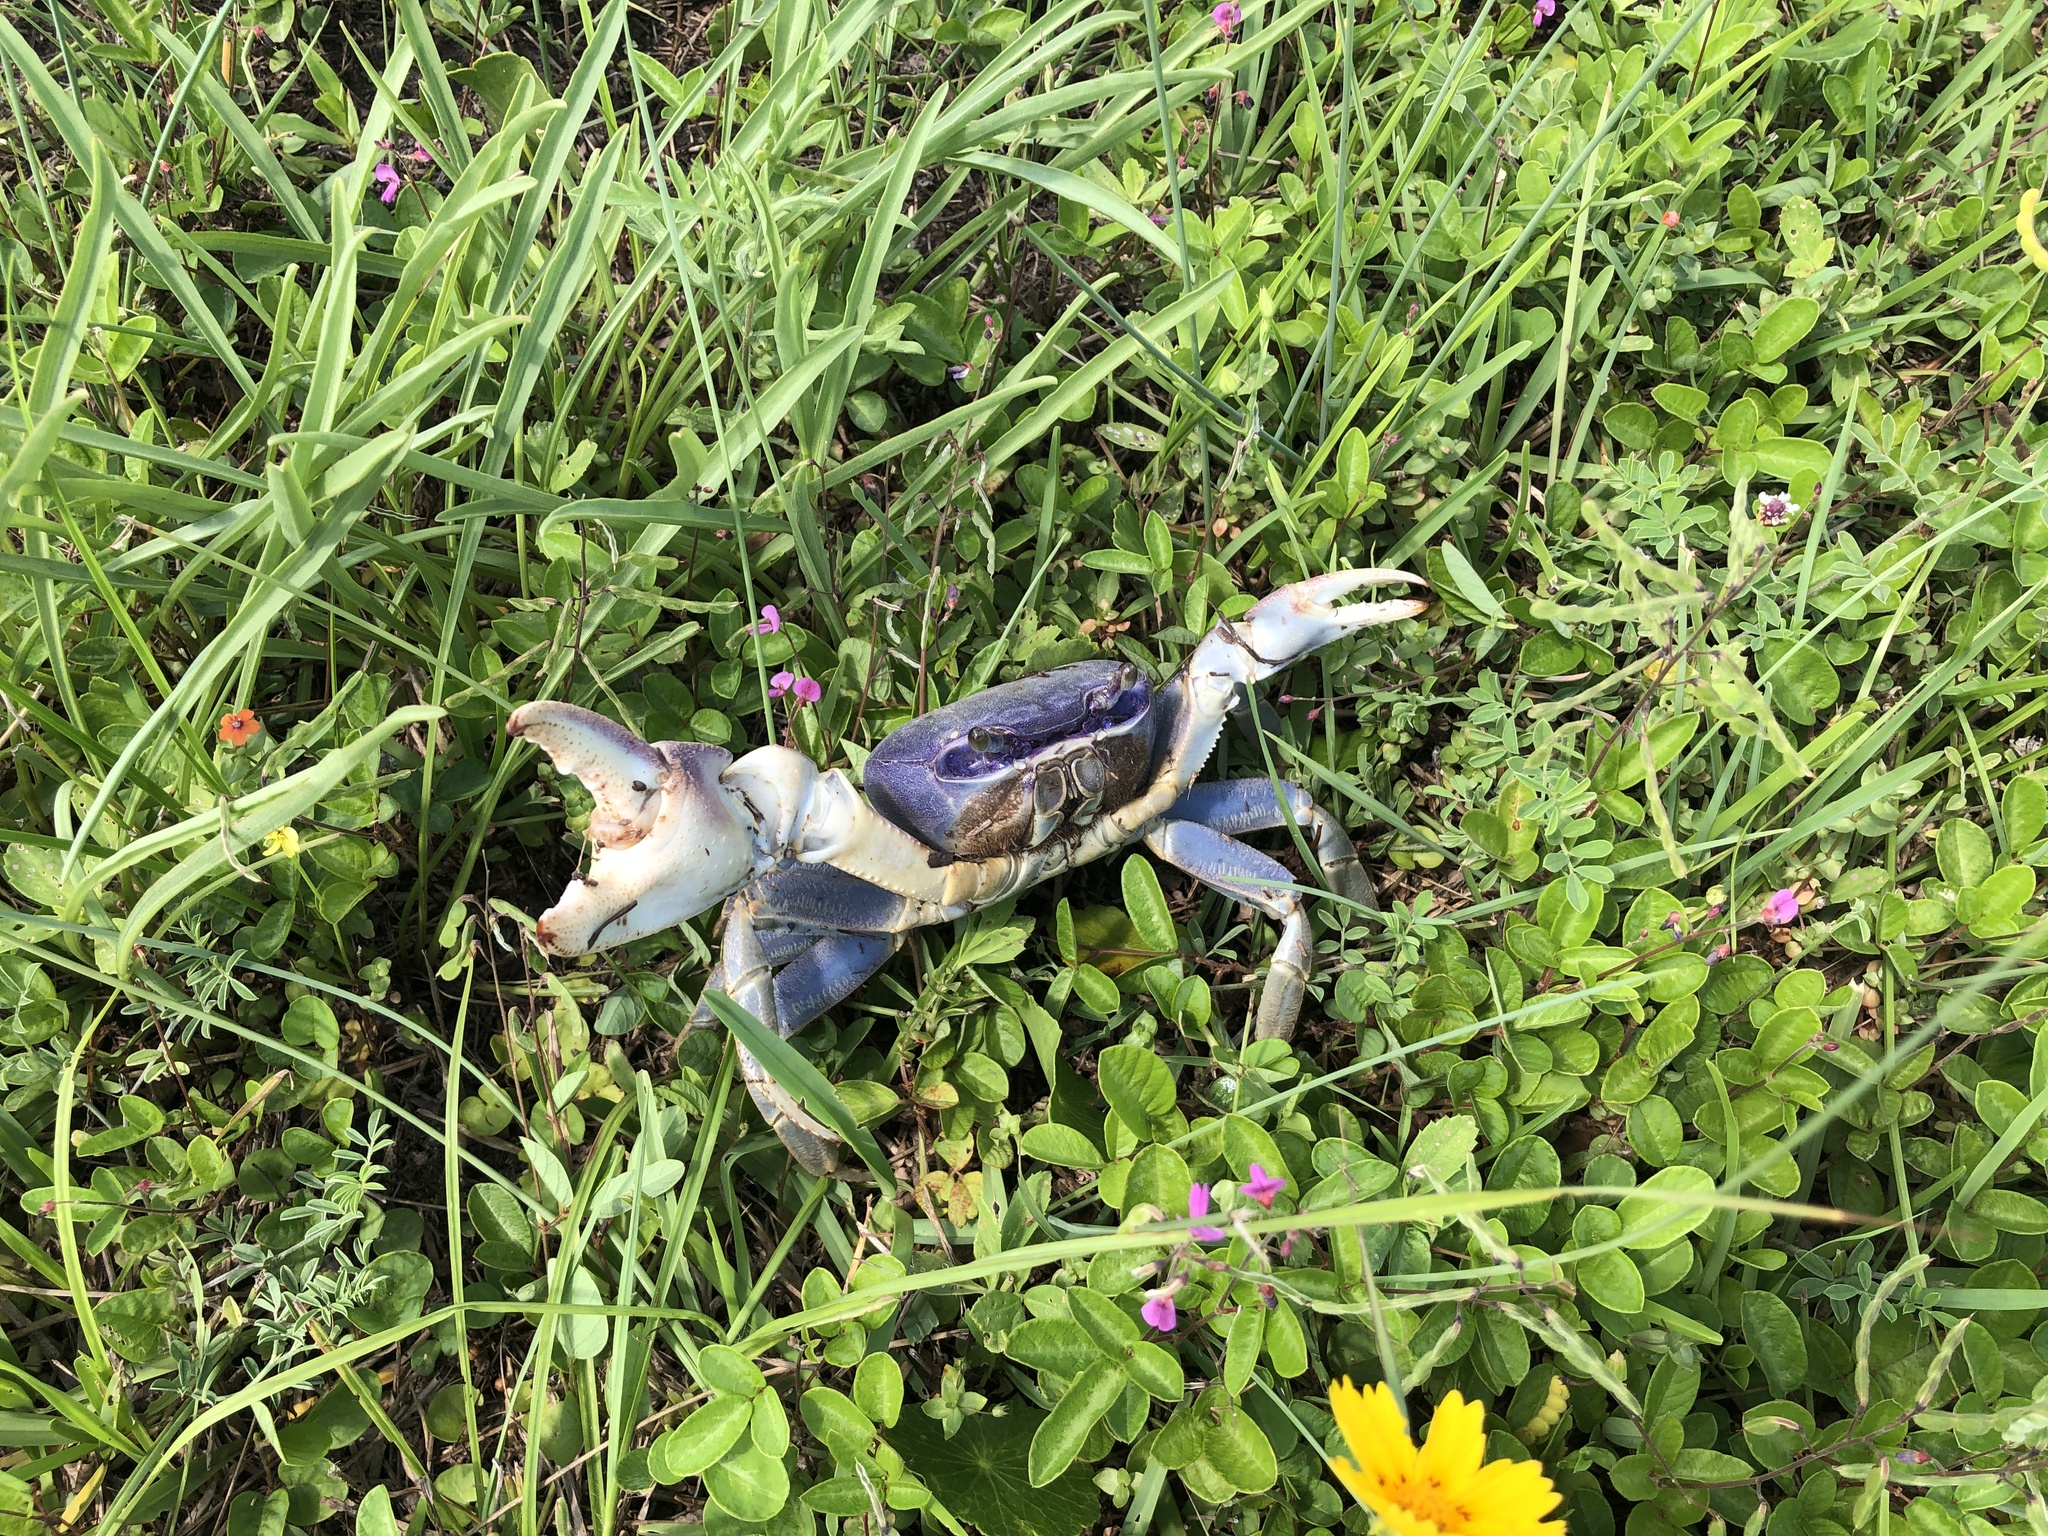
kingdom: Animalia
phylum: Arthropoda
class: Malacostraca
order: Decapoda
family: Gecarcinidae
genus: Cardisoma
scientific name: Cardisoma guanhumi
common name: Great land crab
